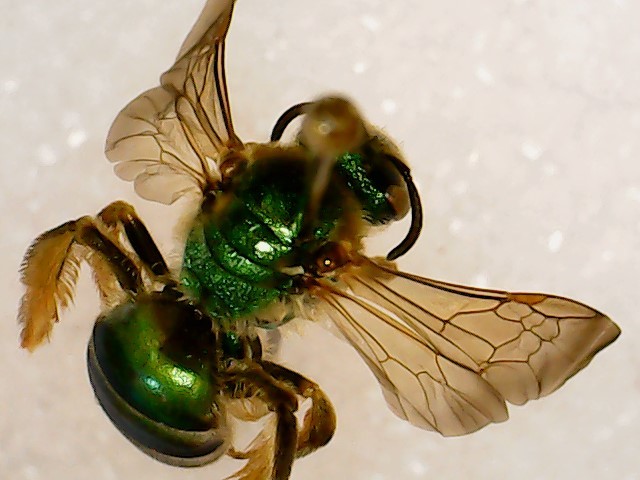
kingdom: Animalia
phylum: Arthropoda
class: Insecta
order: Hymenoptera
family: Halictidae
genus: Agapostemon
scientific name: Agapostemon
